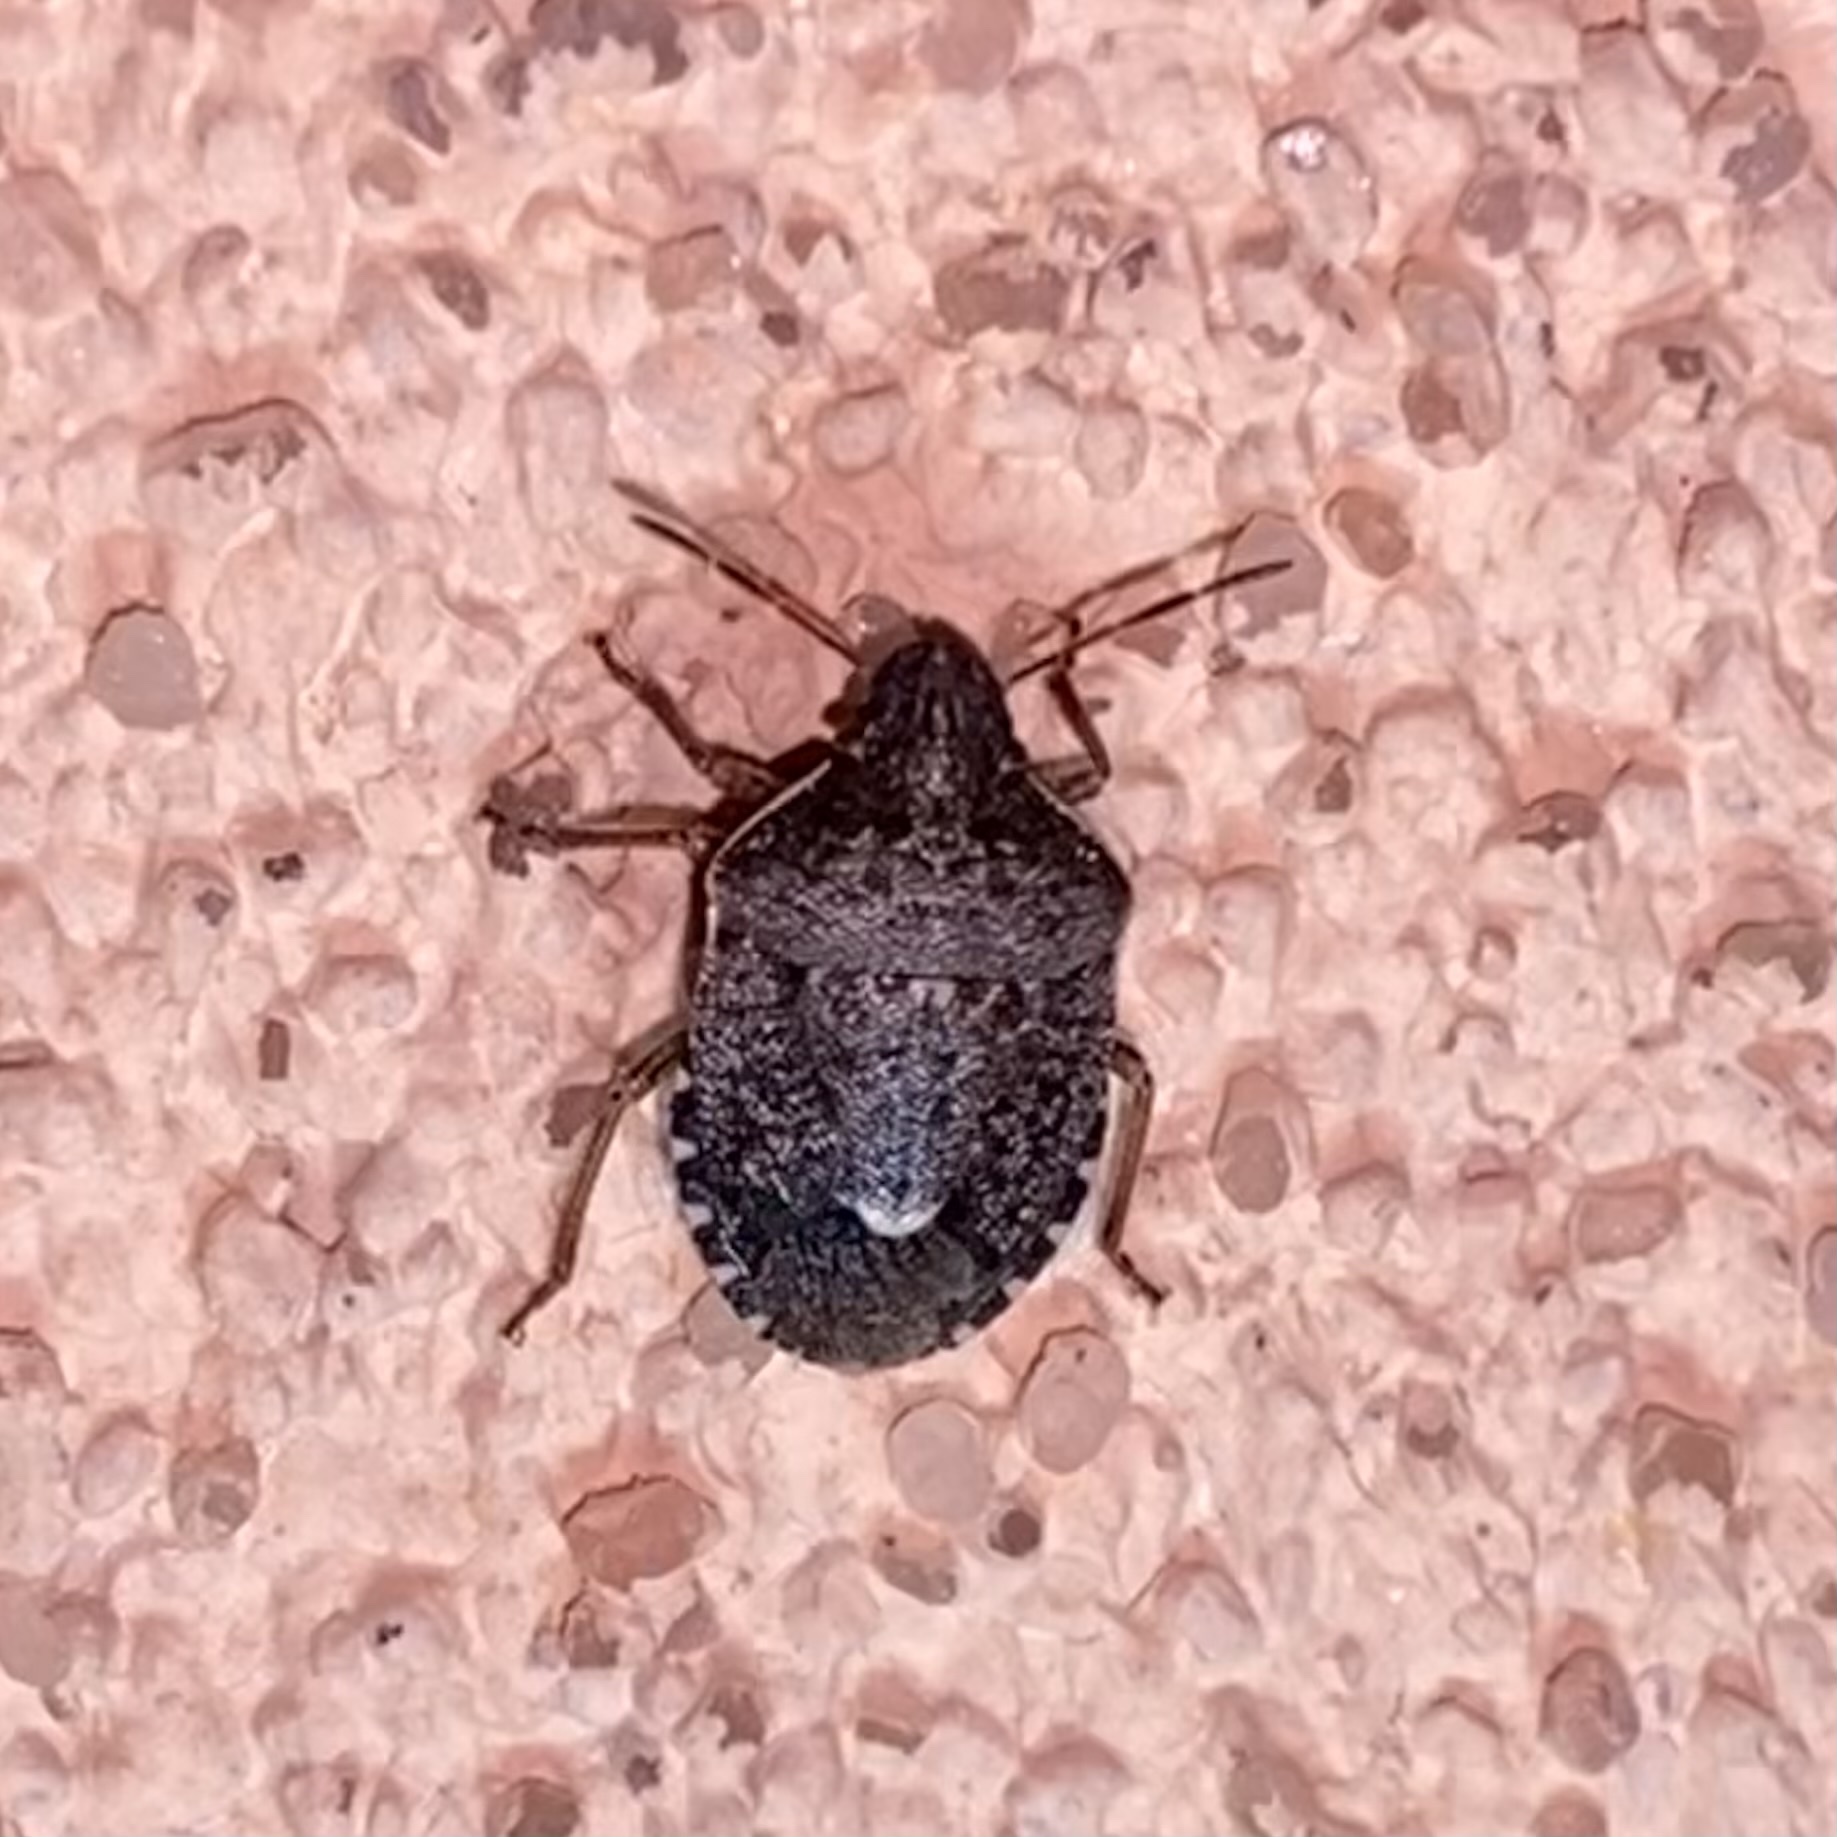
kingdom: Animalia
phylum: Arthropoda
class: Insecta
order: Hemiptera
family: Pentatomidae
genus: Holcostethus
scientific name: Holcostethus abbreviatus
